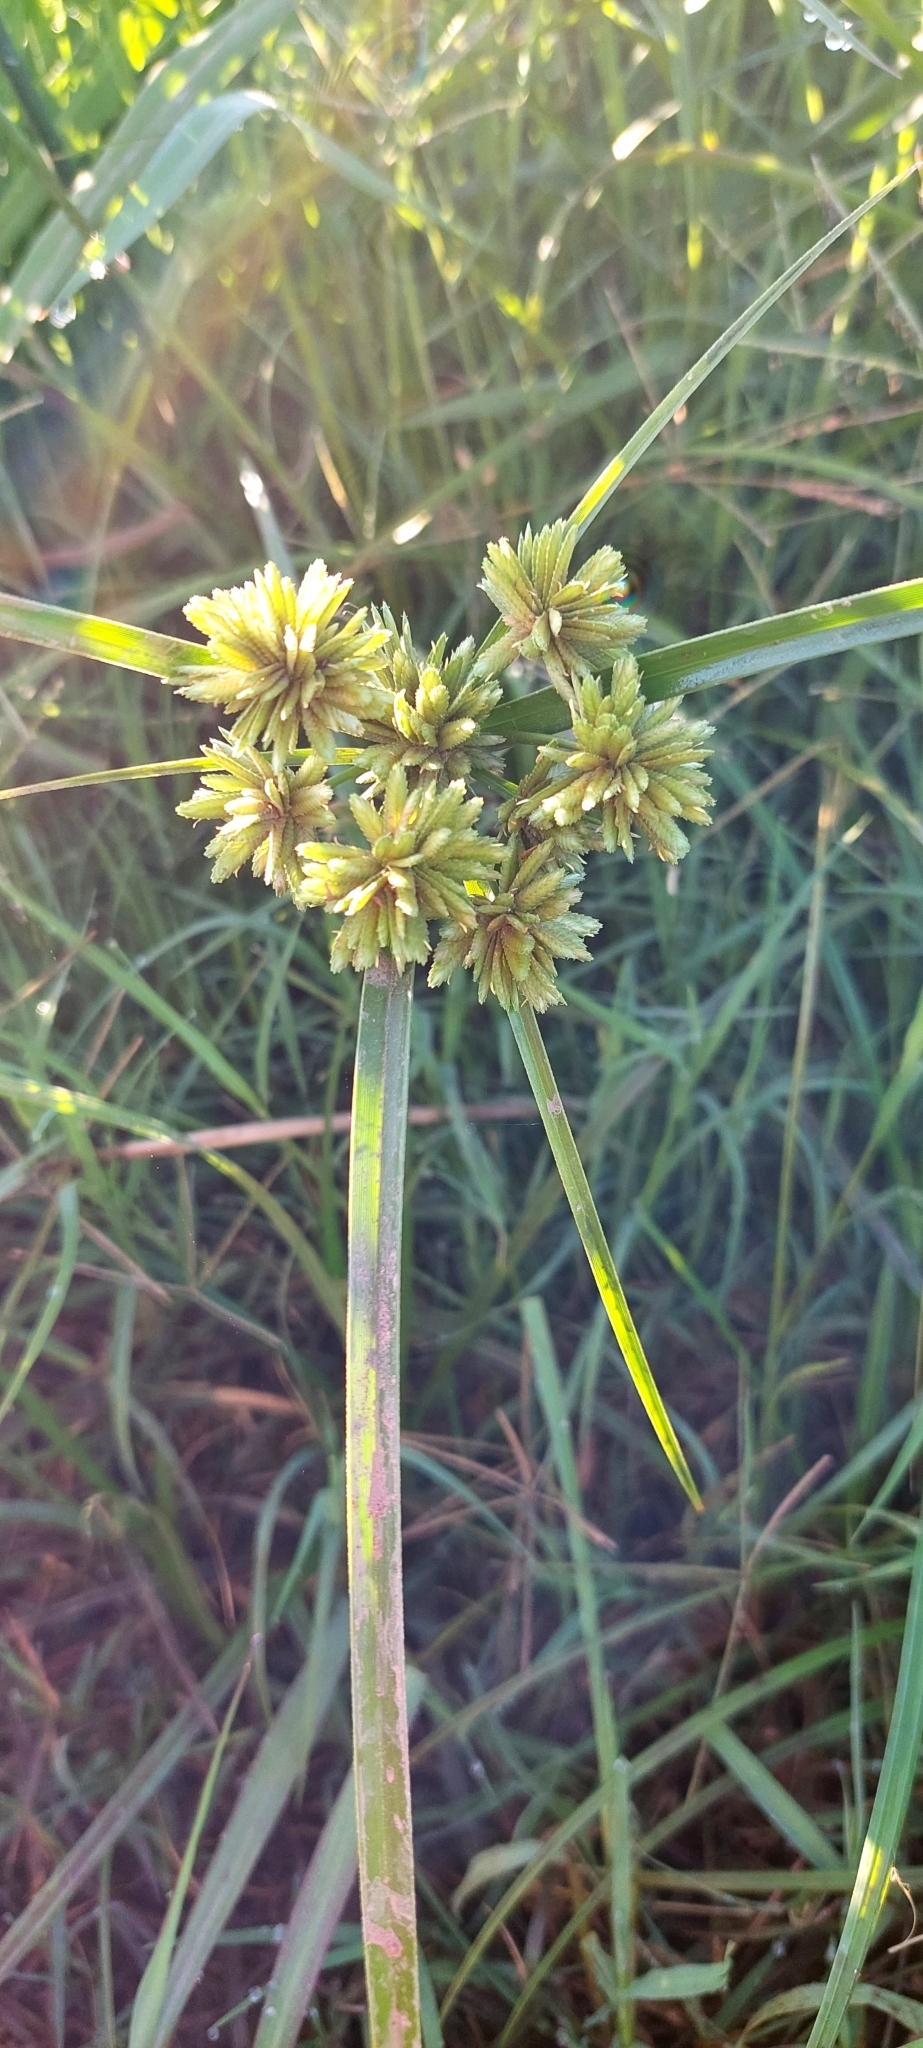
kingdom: Plantae
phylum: Tracheophyta
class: Liliopsida
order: Poales
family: Cyperaceae
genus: Cyperus
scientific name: Cyperus eragrostis
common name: Tall flatsedge
